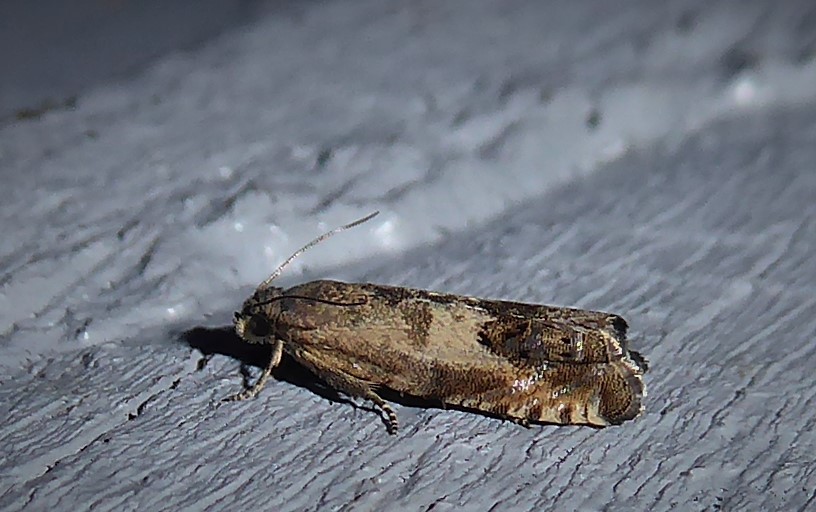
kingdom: Animalia
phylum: Arthropoda
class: Insecta
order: Lepidoptera
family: Tortricidae
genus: Cydia
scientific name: Cydia succedana
